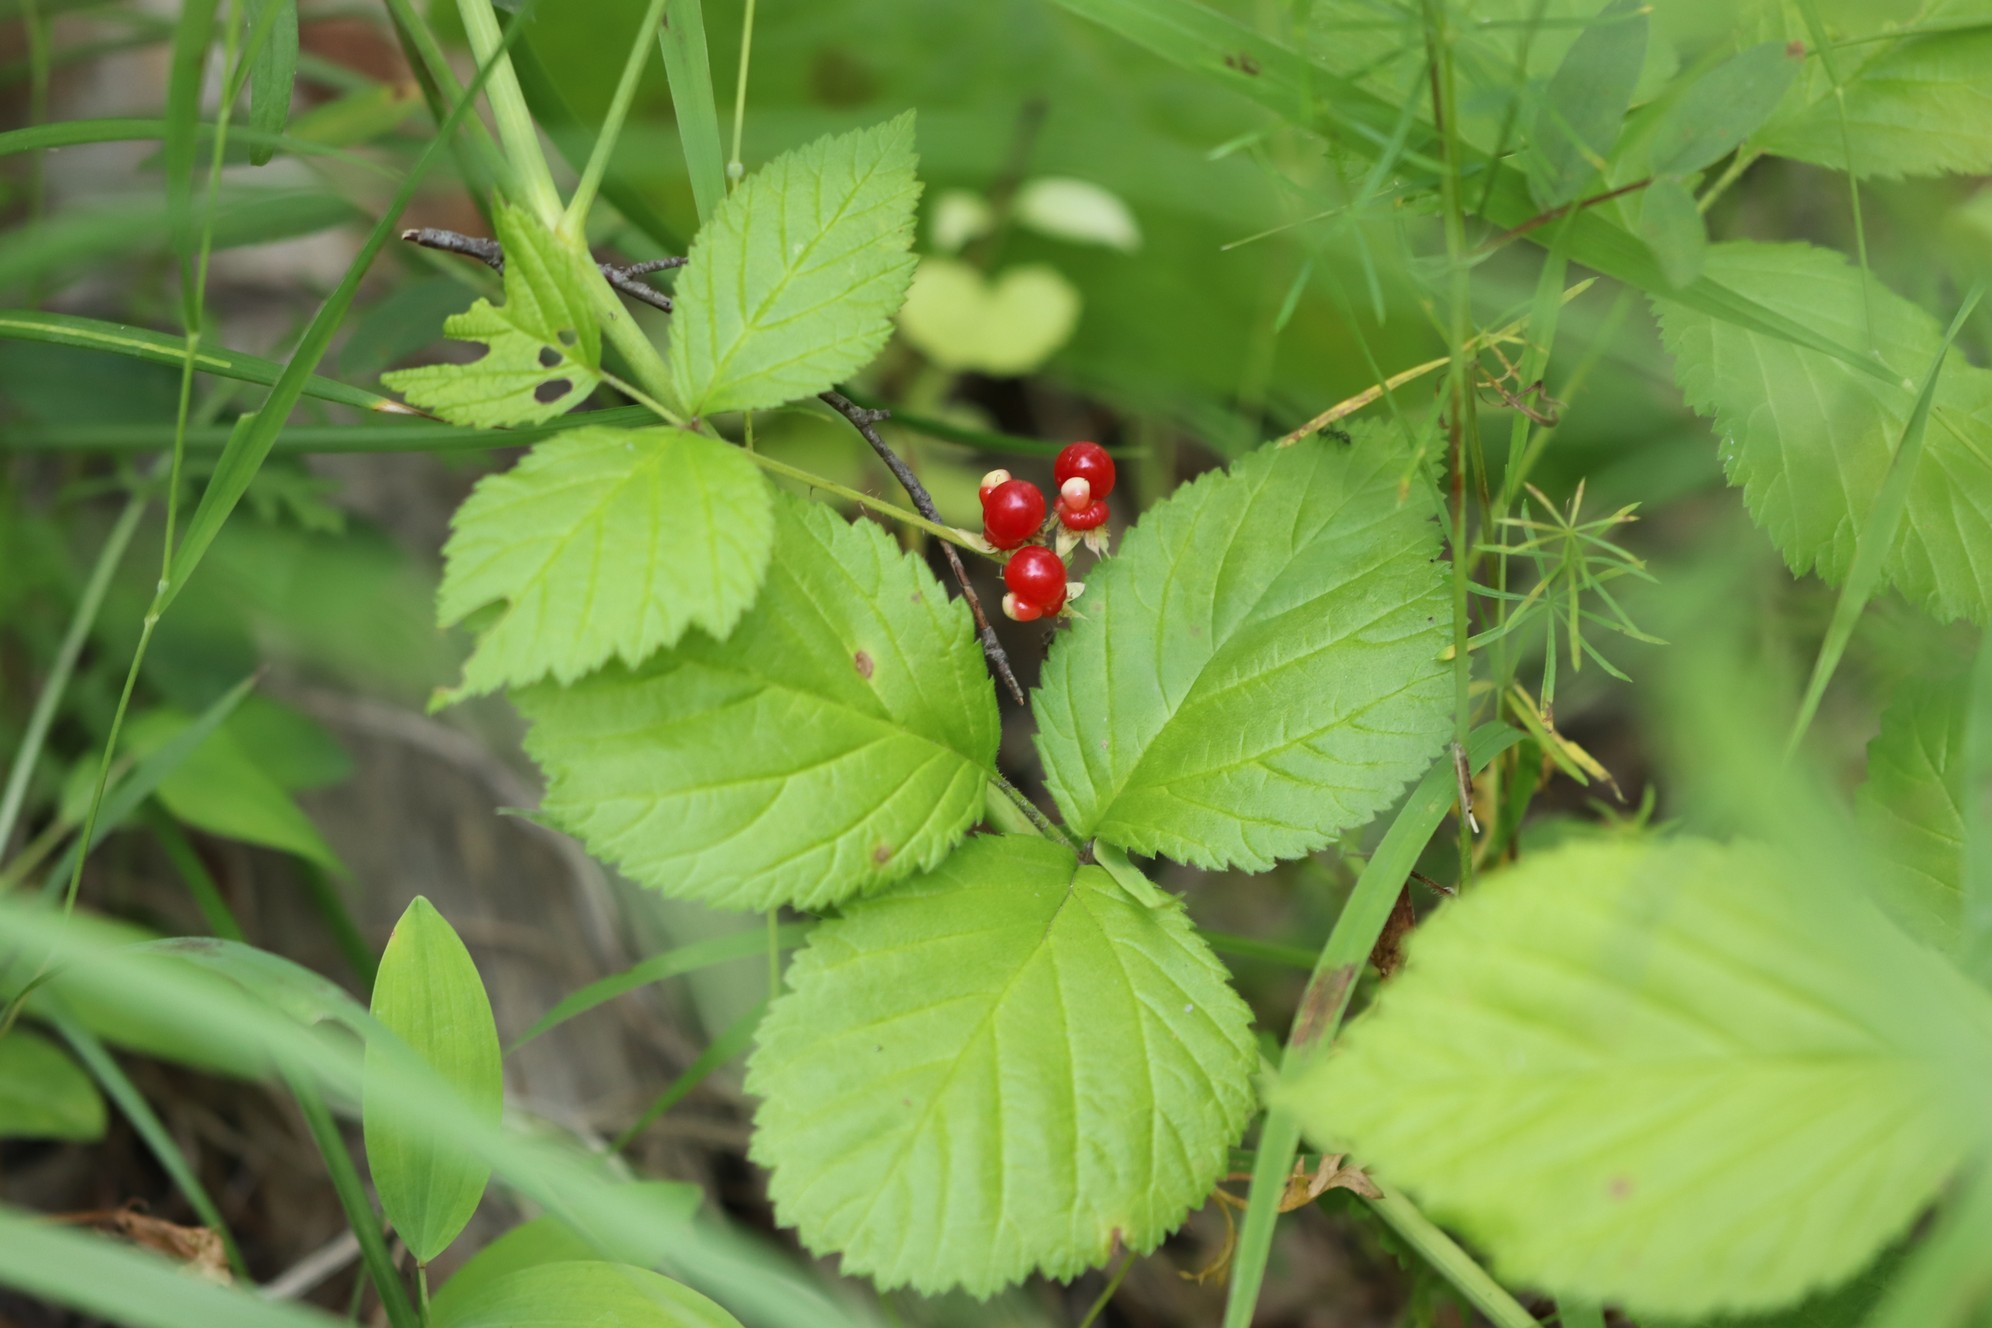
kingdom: Plantae
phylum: Tracheophyta
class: Magnoliopsida
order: Rosales
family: Rosaceae
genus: Rubus
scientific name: Rubus saxatilis
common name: Stone bramble
